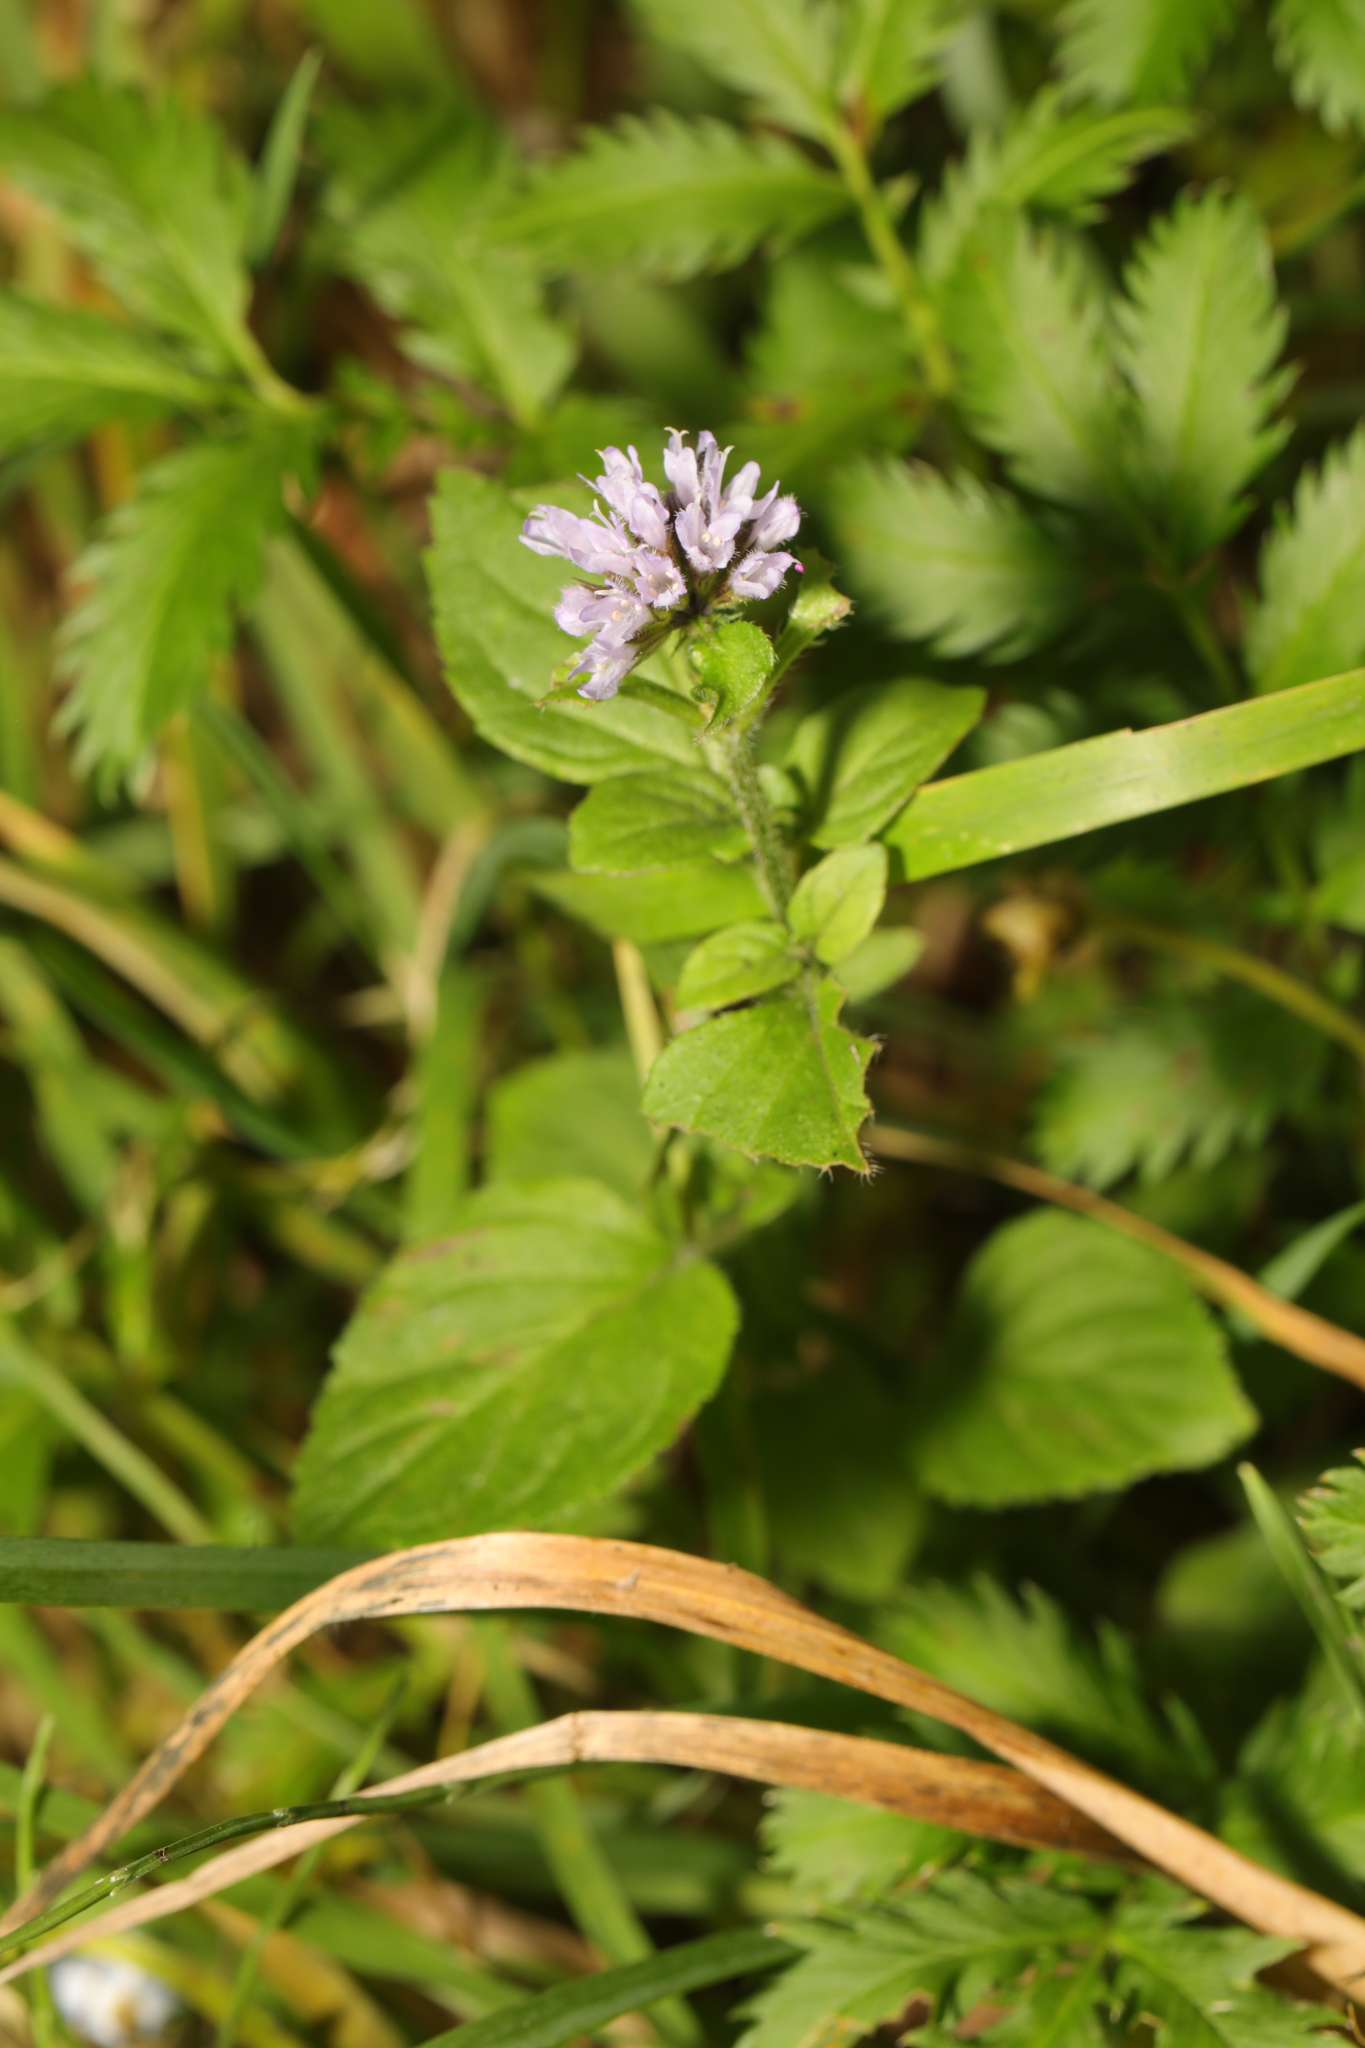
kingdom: Plantae
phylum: Tracheophyta
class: Magnoliopsida
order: Lamiales
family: Lamiaceae
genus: Mentha
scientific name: Mentha aquatica
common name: Water mint
